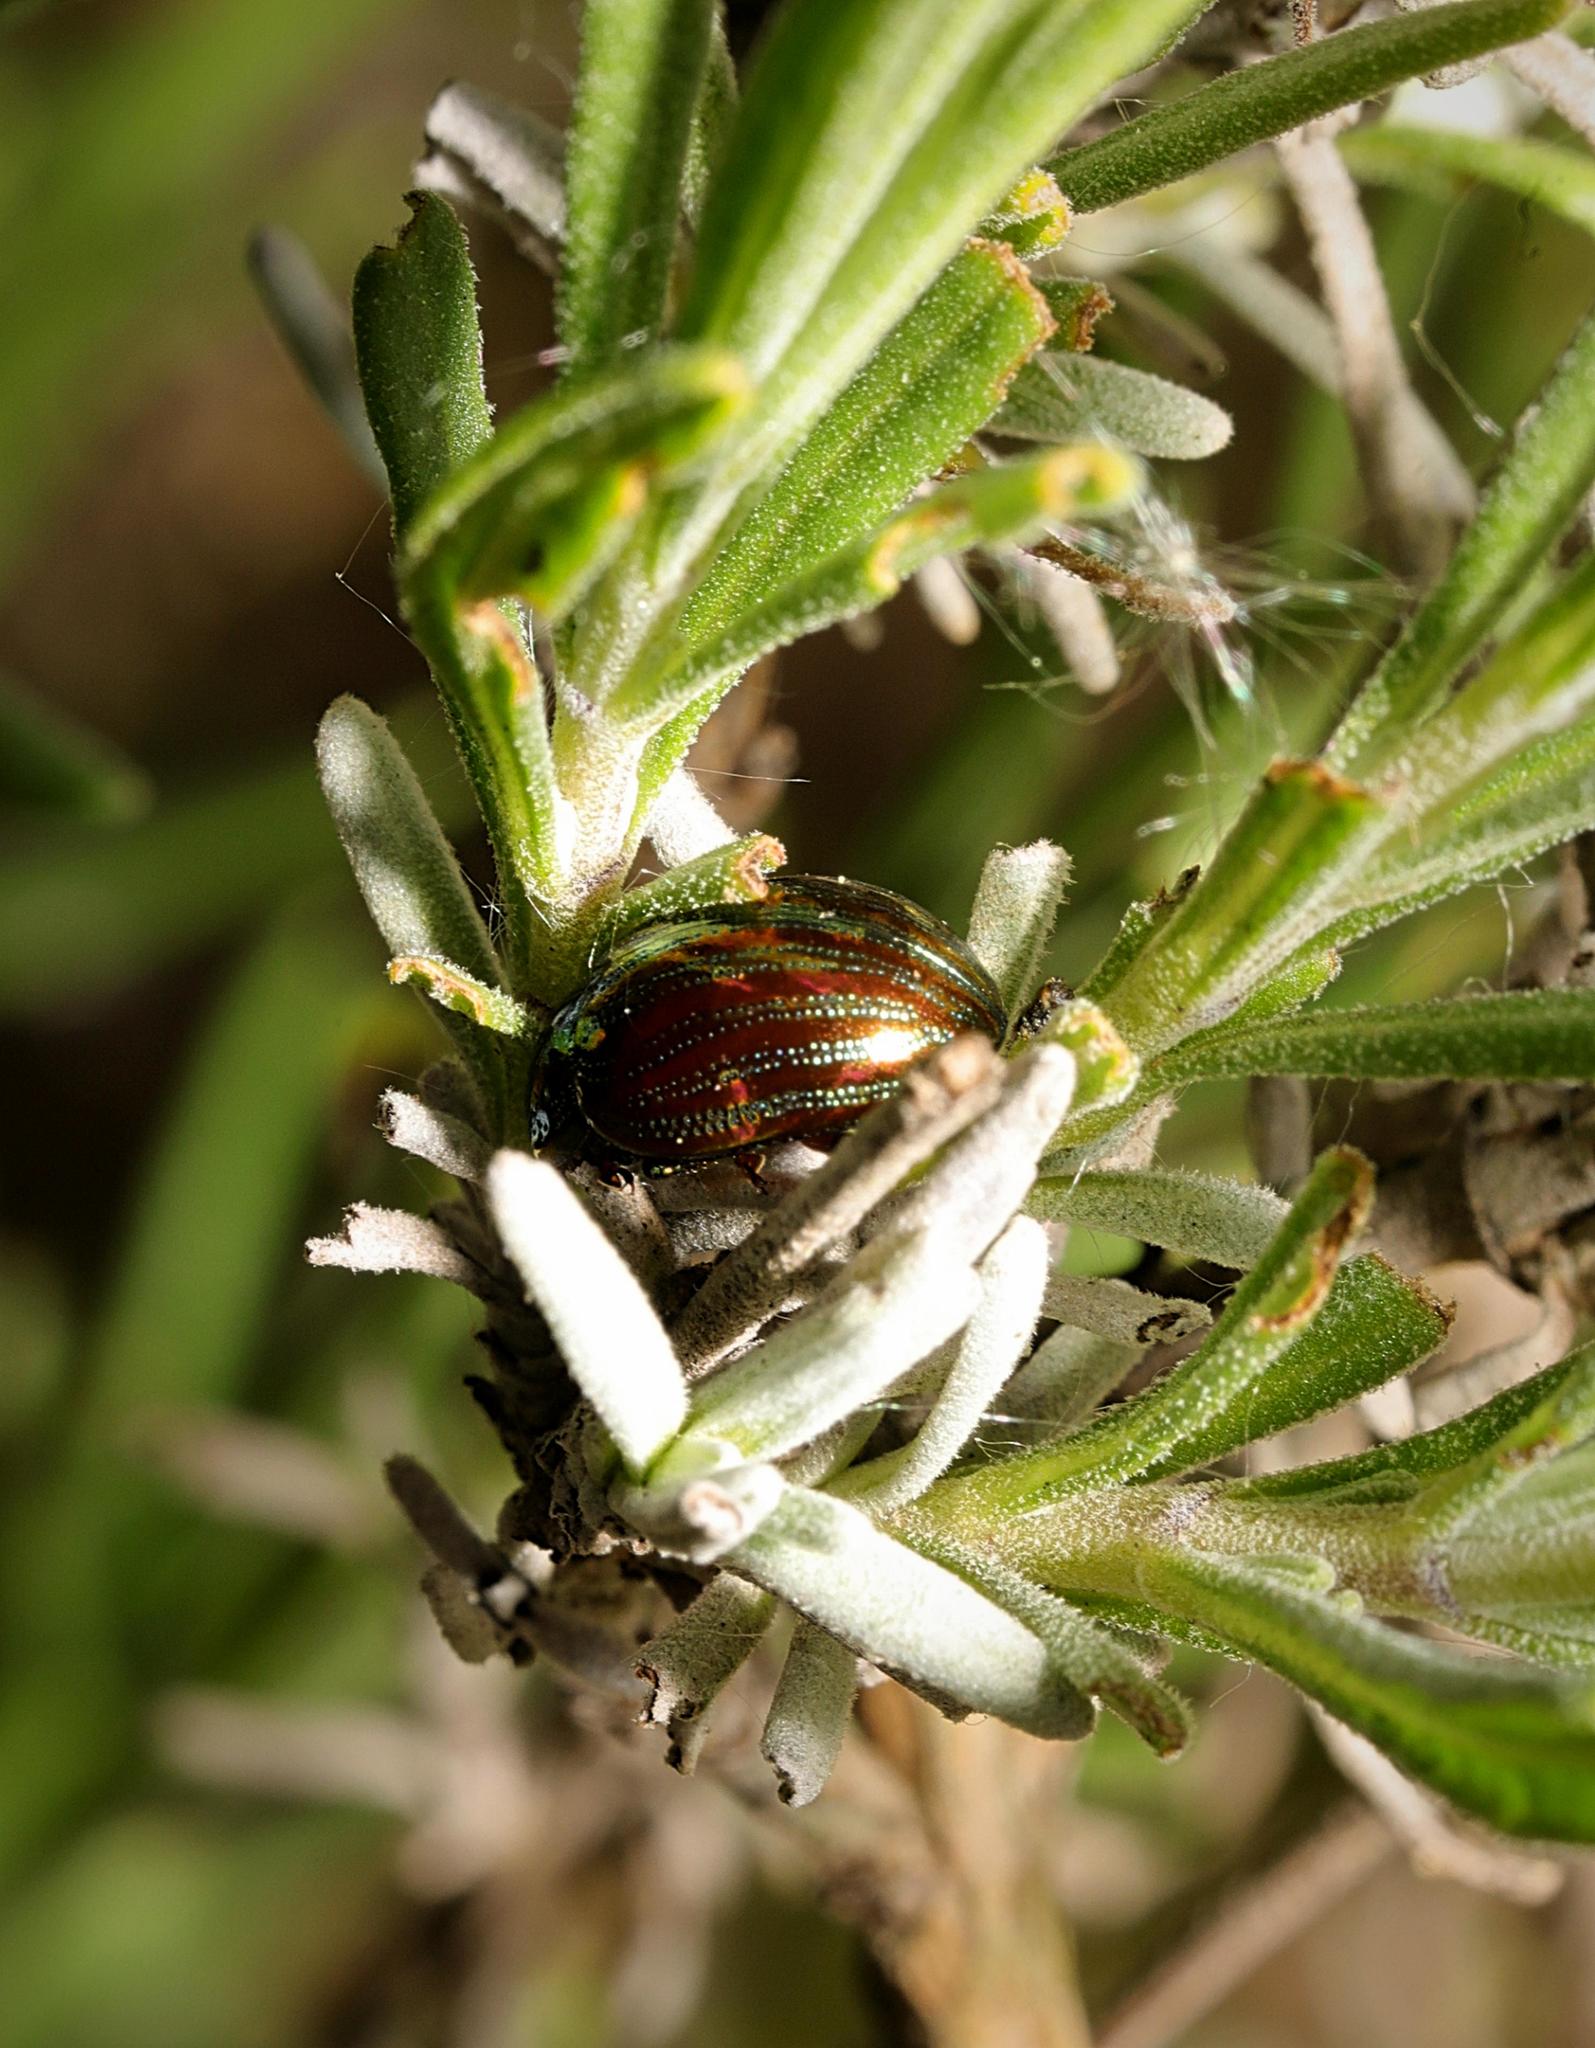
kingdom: Animalia
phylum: Arthropoda
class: Insecta
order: Coleoptera
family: Chrysomelidae
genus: Chrysolina
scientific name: Chrysolina americana
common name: Rosemary beetle
